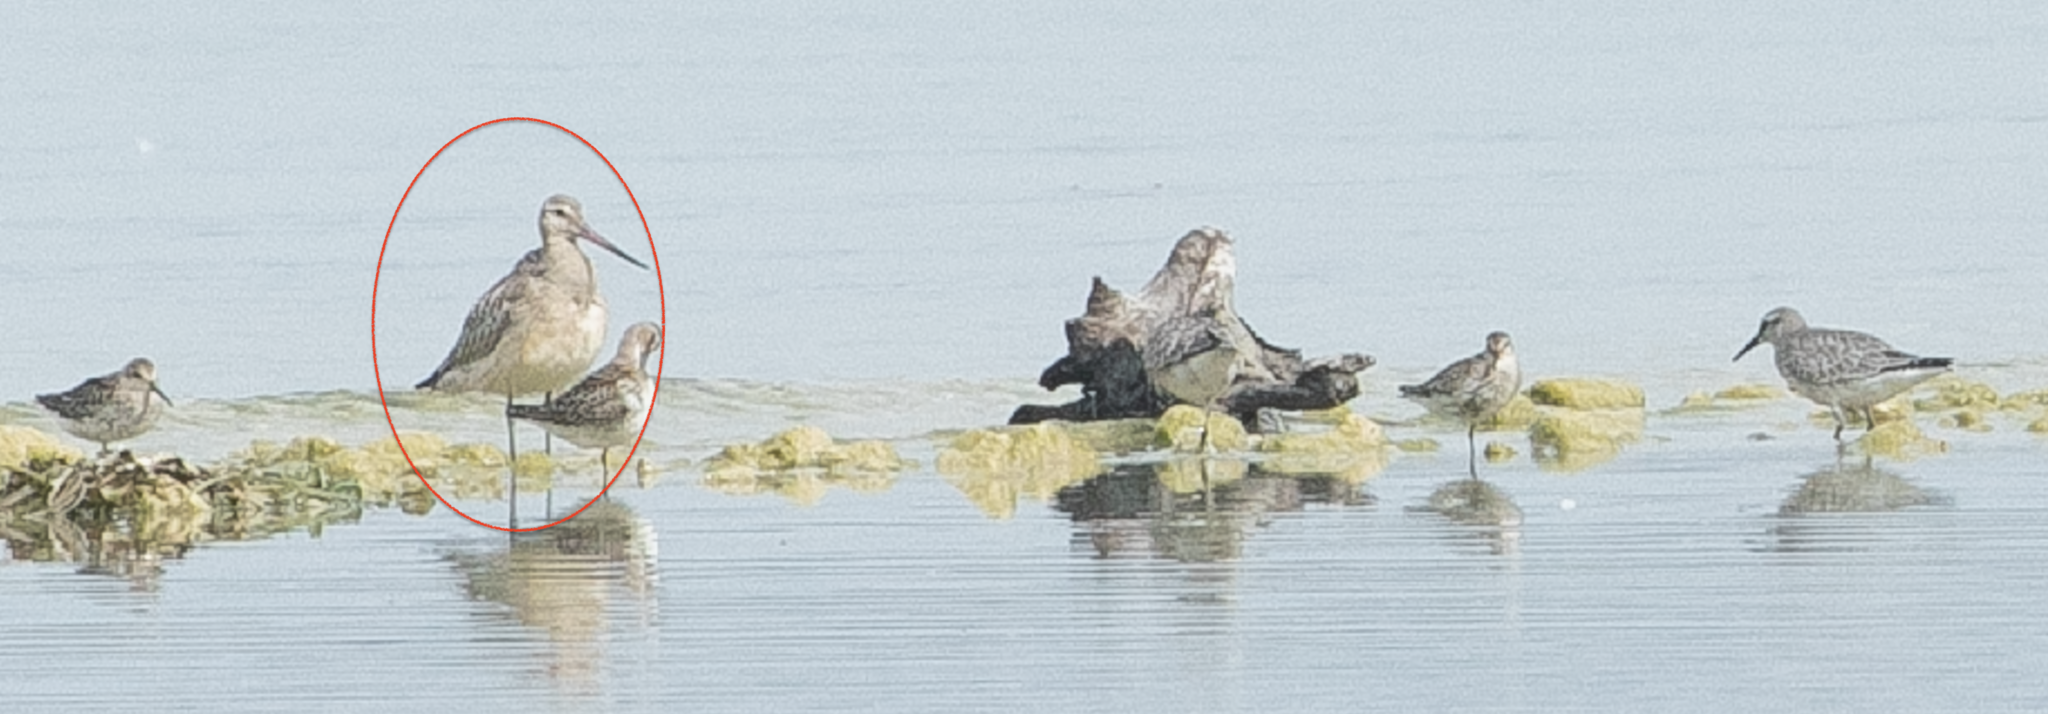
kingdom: Animalia
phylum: Chordata
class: Aves
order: Charadriiformes
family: Scolopacidae
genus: Limosa
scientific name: Limosa lapponica
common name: Bar-tailed godwit
